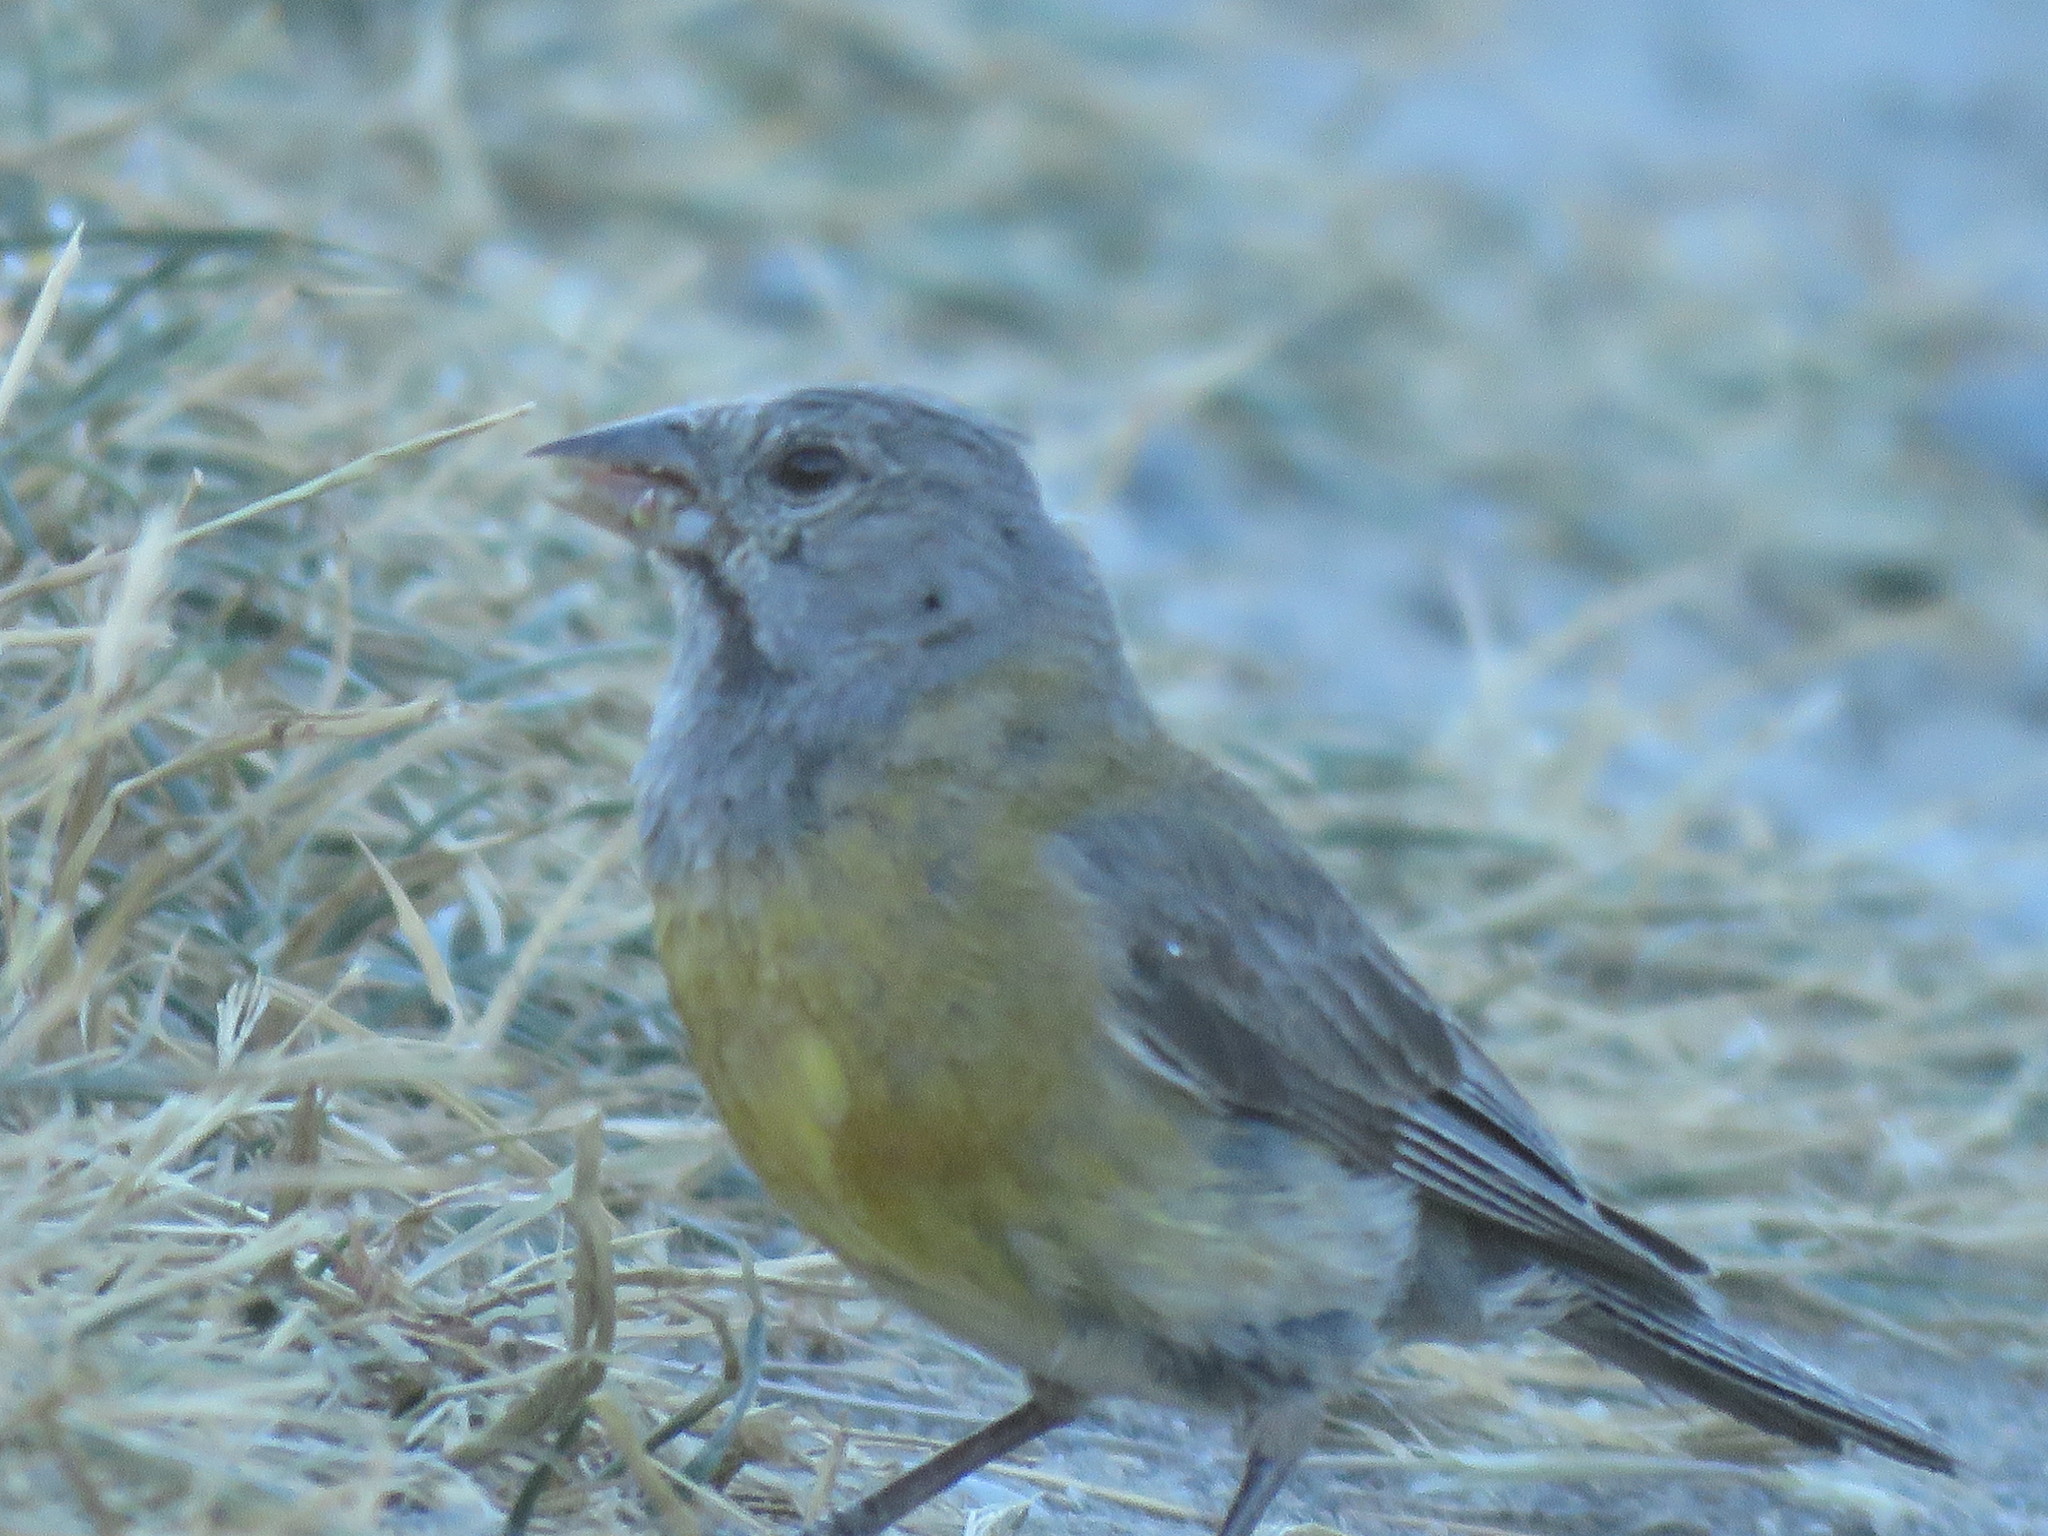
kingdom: Animalia
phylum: Chordata
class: Aves
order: Passeriformes
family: Thraupidae
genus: Phrygilus
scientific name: Phrygilus gayi
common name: Grey-hooded sierra finch
